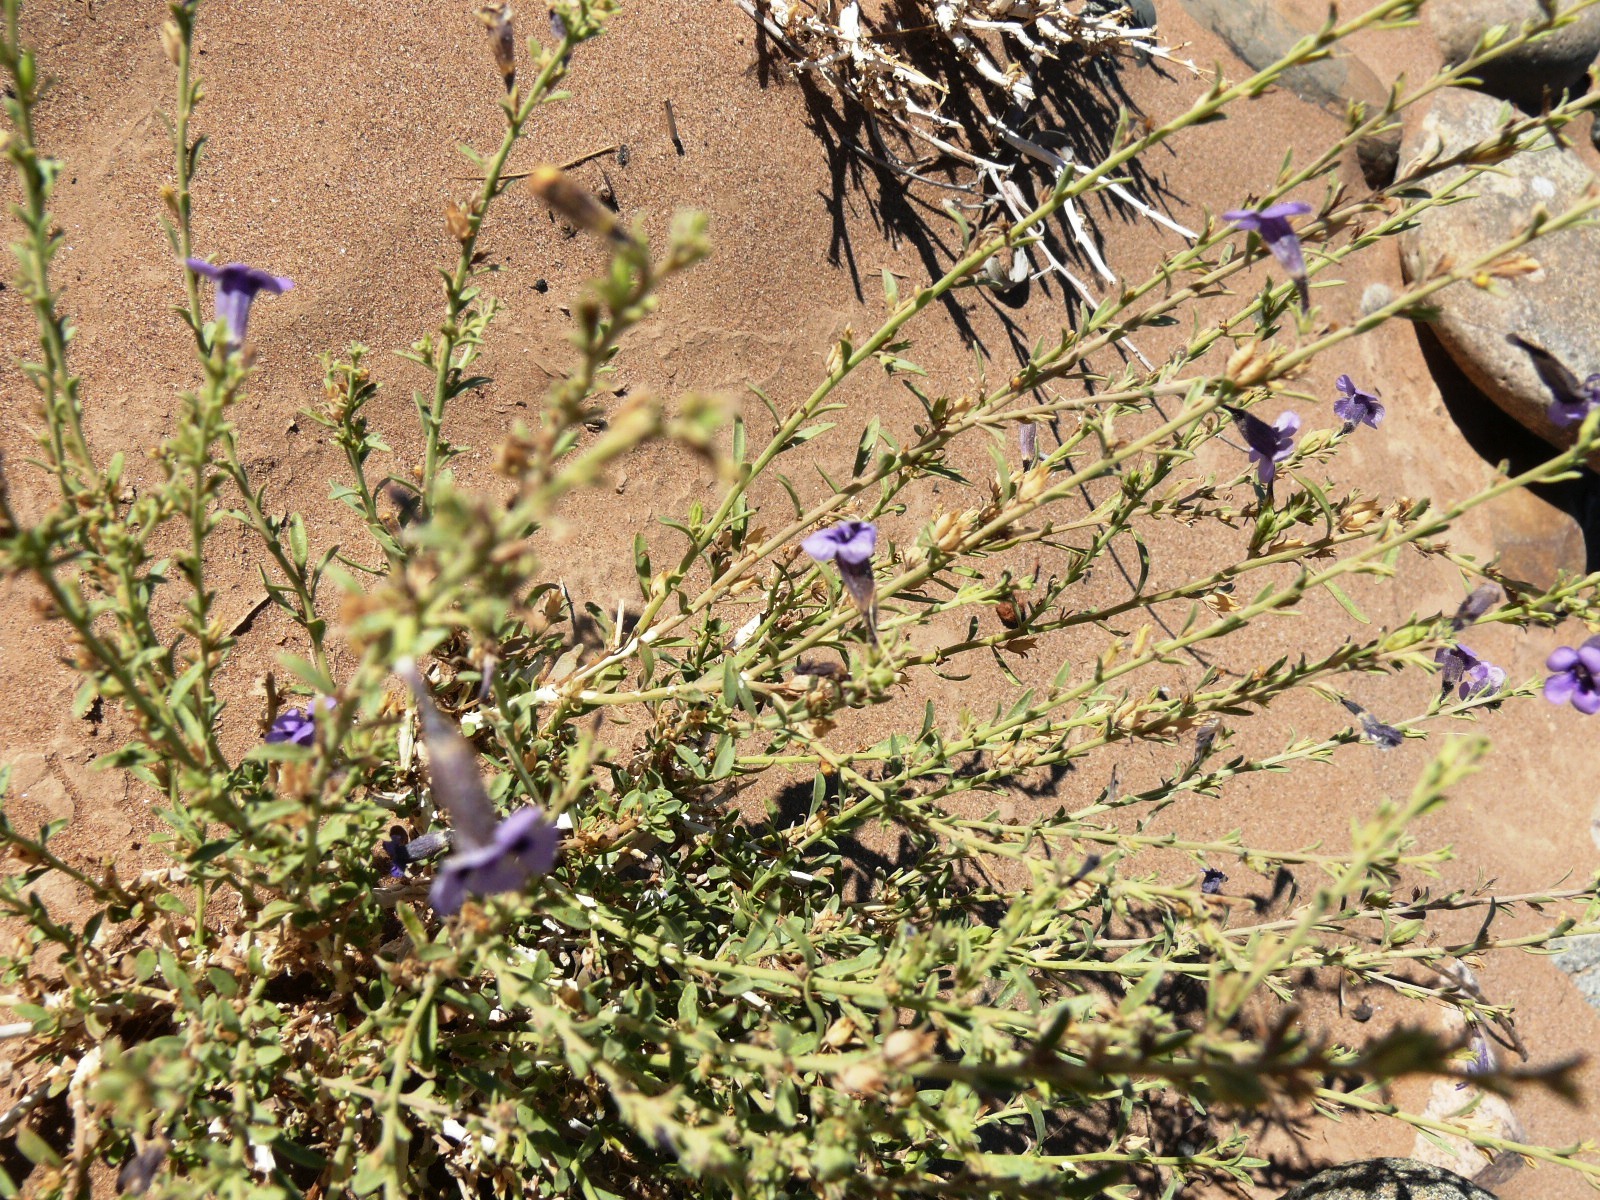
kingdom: Plantae
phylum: Tracheophyta
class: Magnoliopsida
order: Lamiales
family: Scrophulariaceae
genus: Peliostomum
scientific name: Peliostomum leucorrhizum
